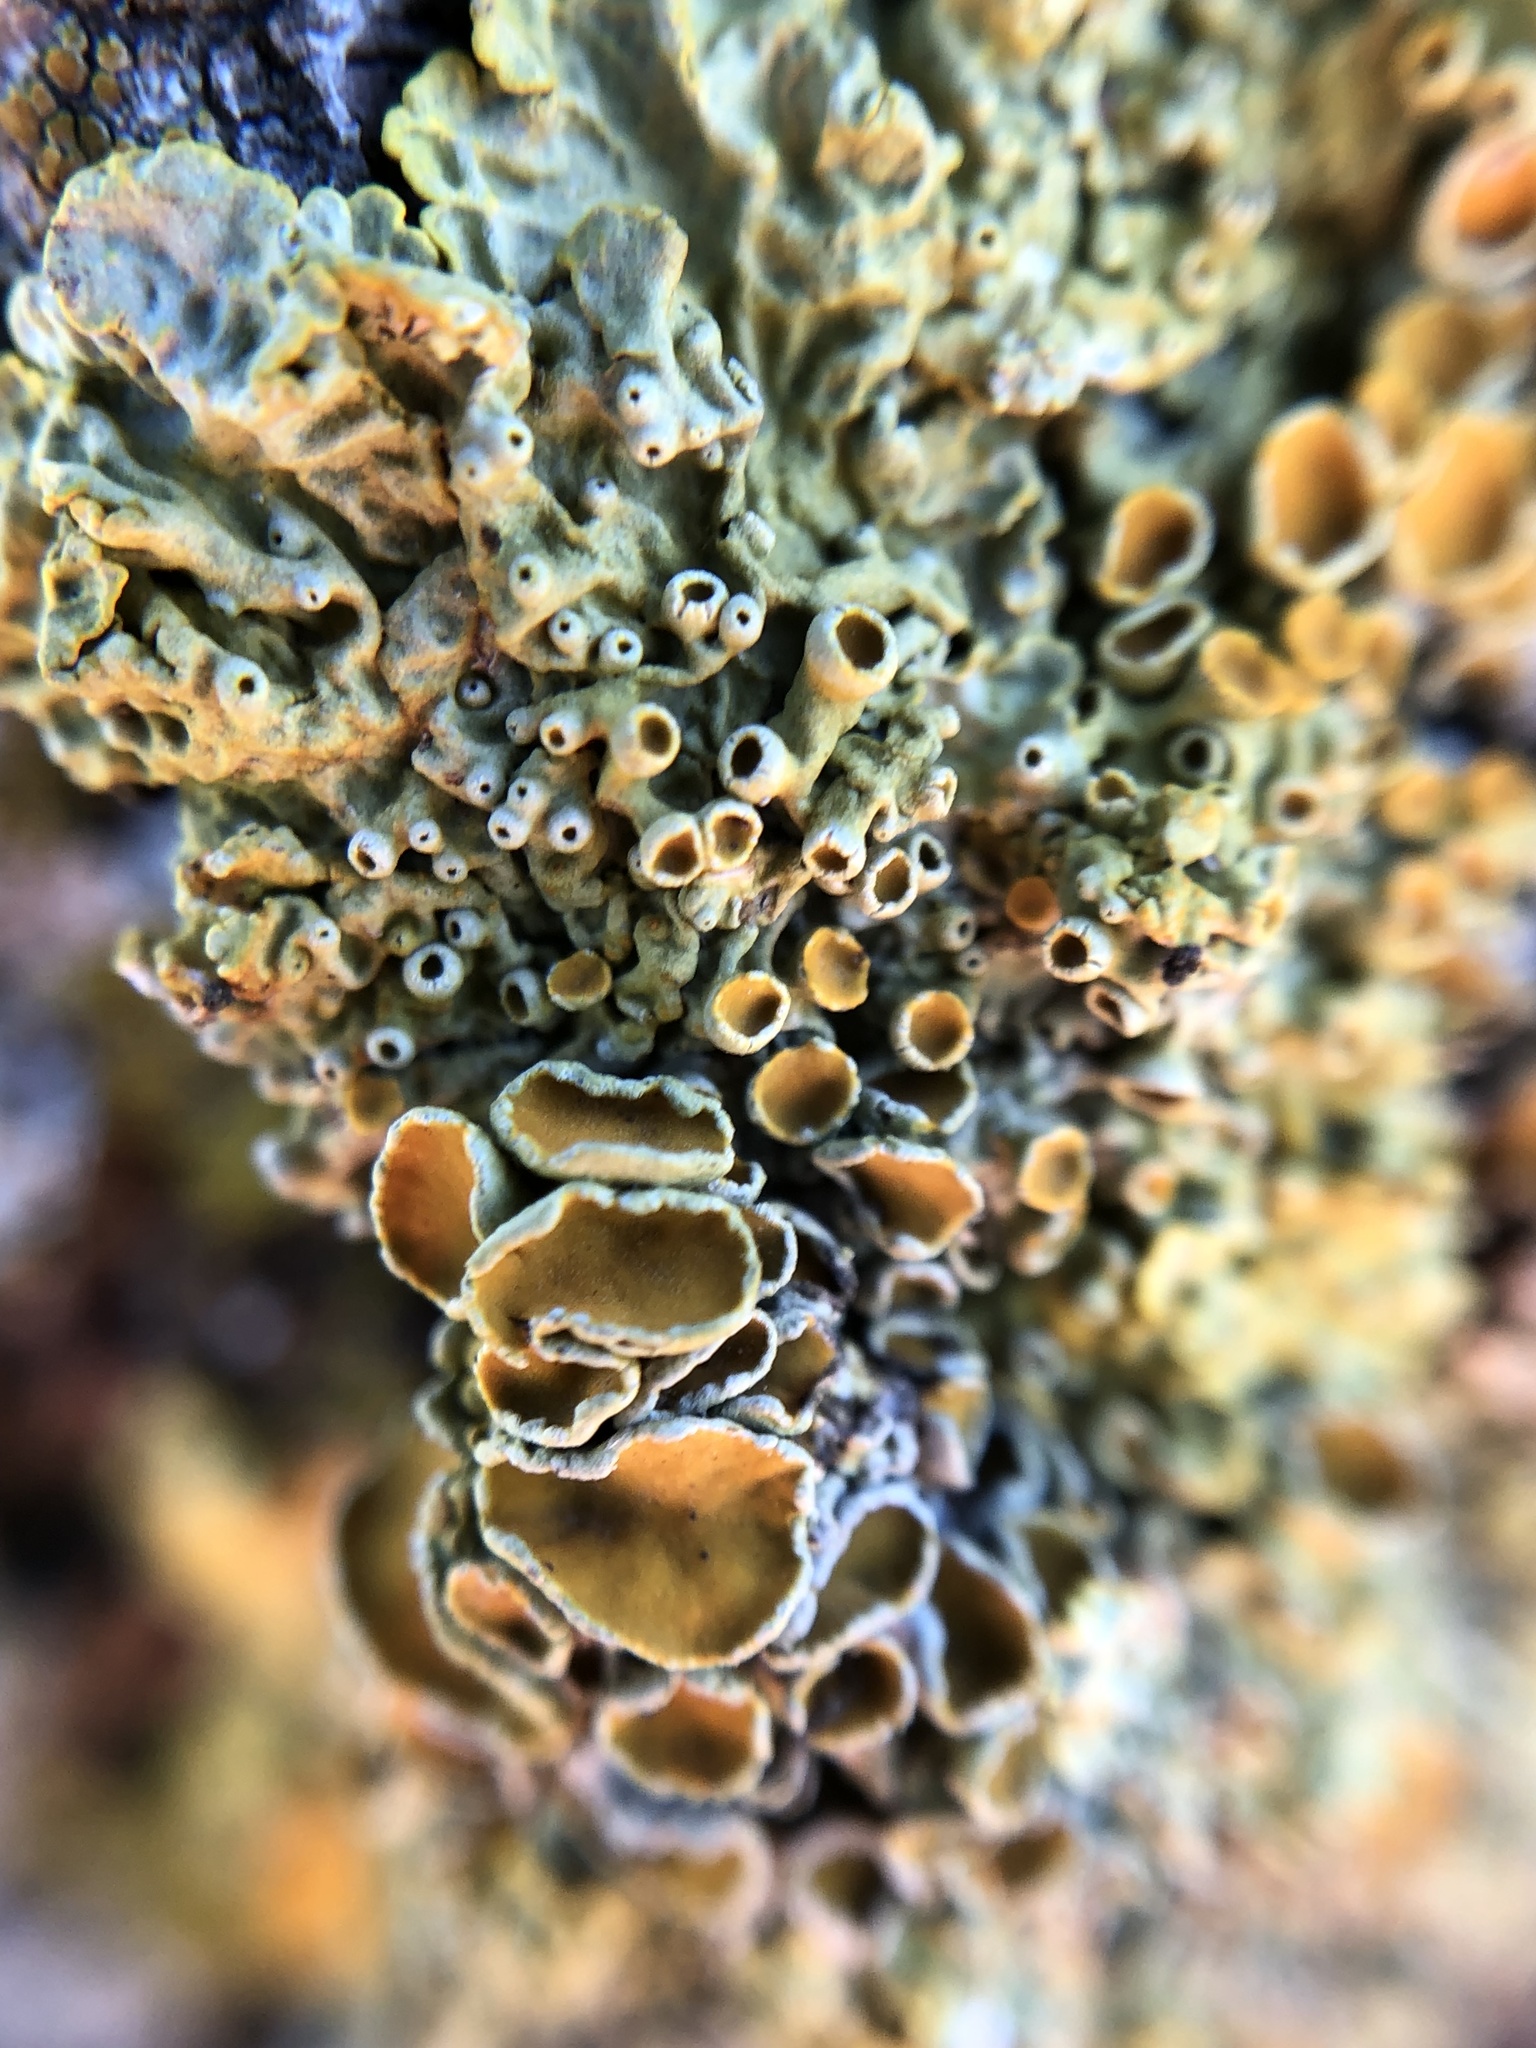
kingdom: Fungi
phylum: Ascomycota
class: Lecanoromycetes
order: Teloschistales
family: Teloschistaceae
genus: Xanthoria
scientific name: Xanthoria parietina
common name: Common orange lichen
